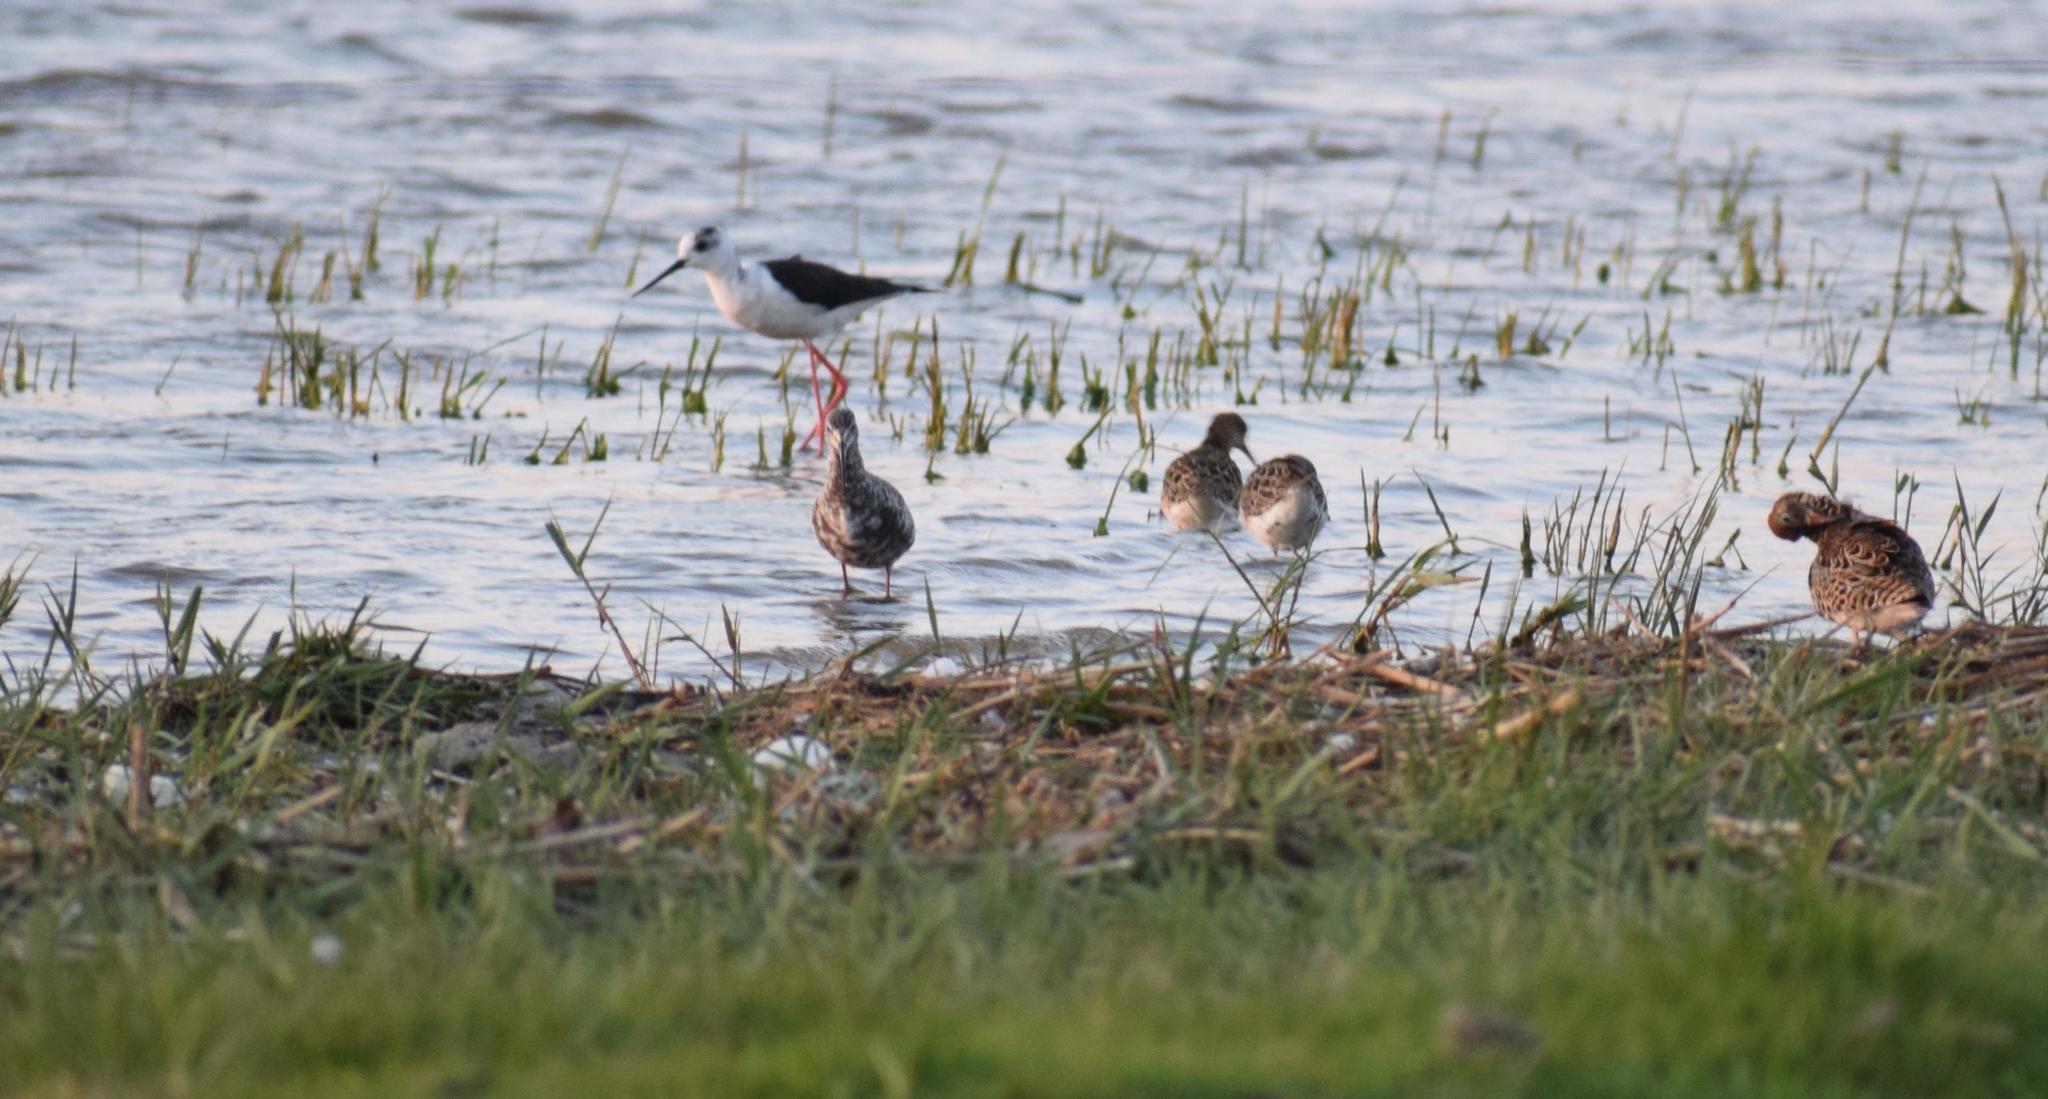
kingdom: Animalia
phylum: Chordata
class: Aves
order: Charadriiformes
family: Recurvirostridae
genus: Himantopus
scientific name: Himantopus himantopus
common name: Black-winged stilt
